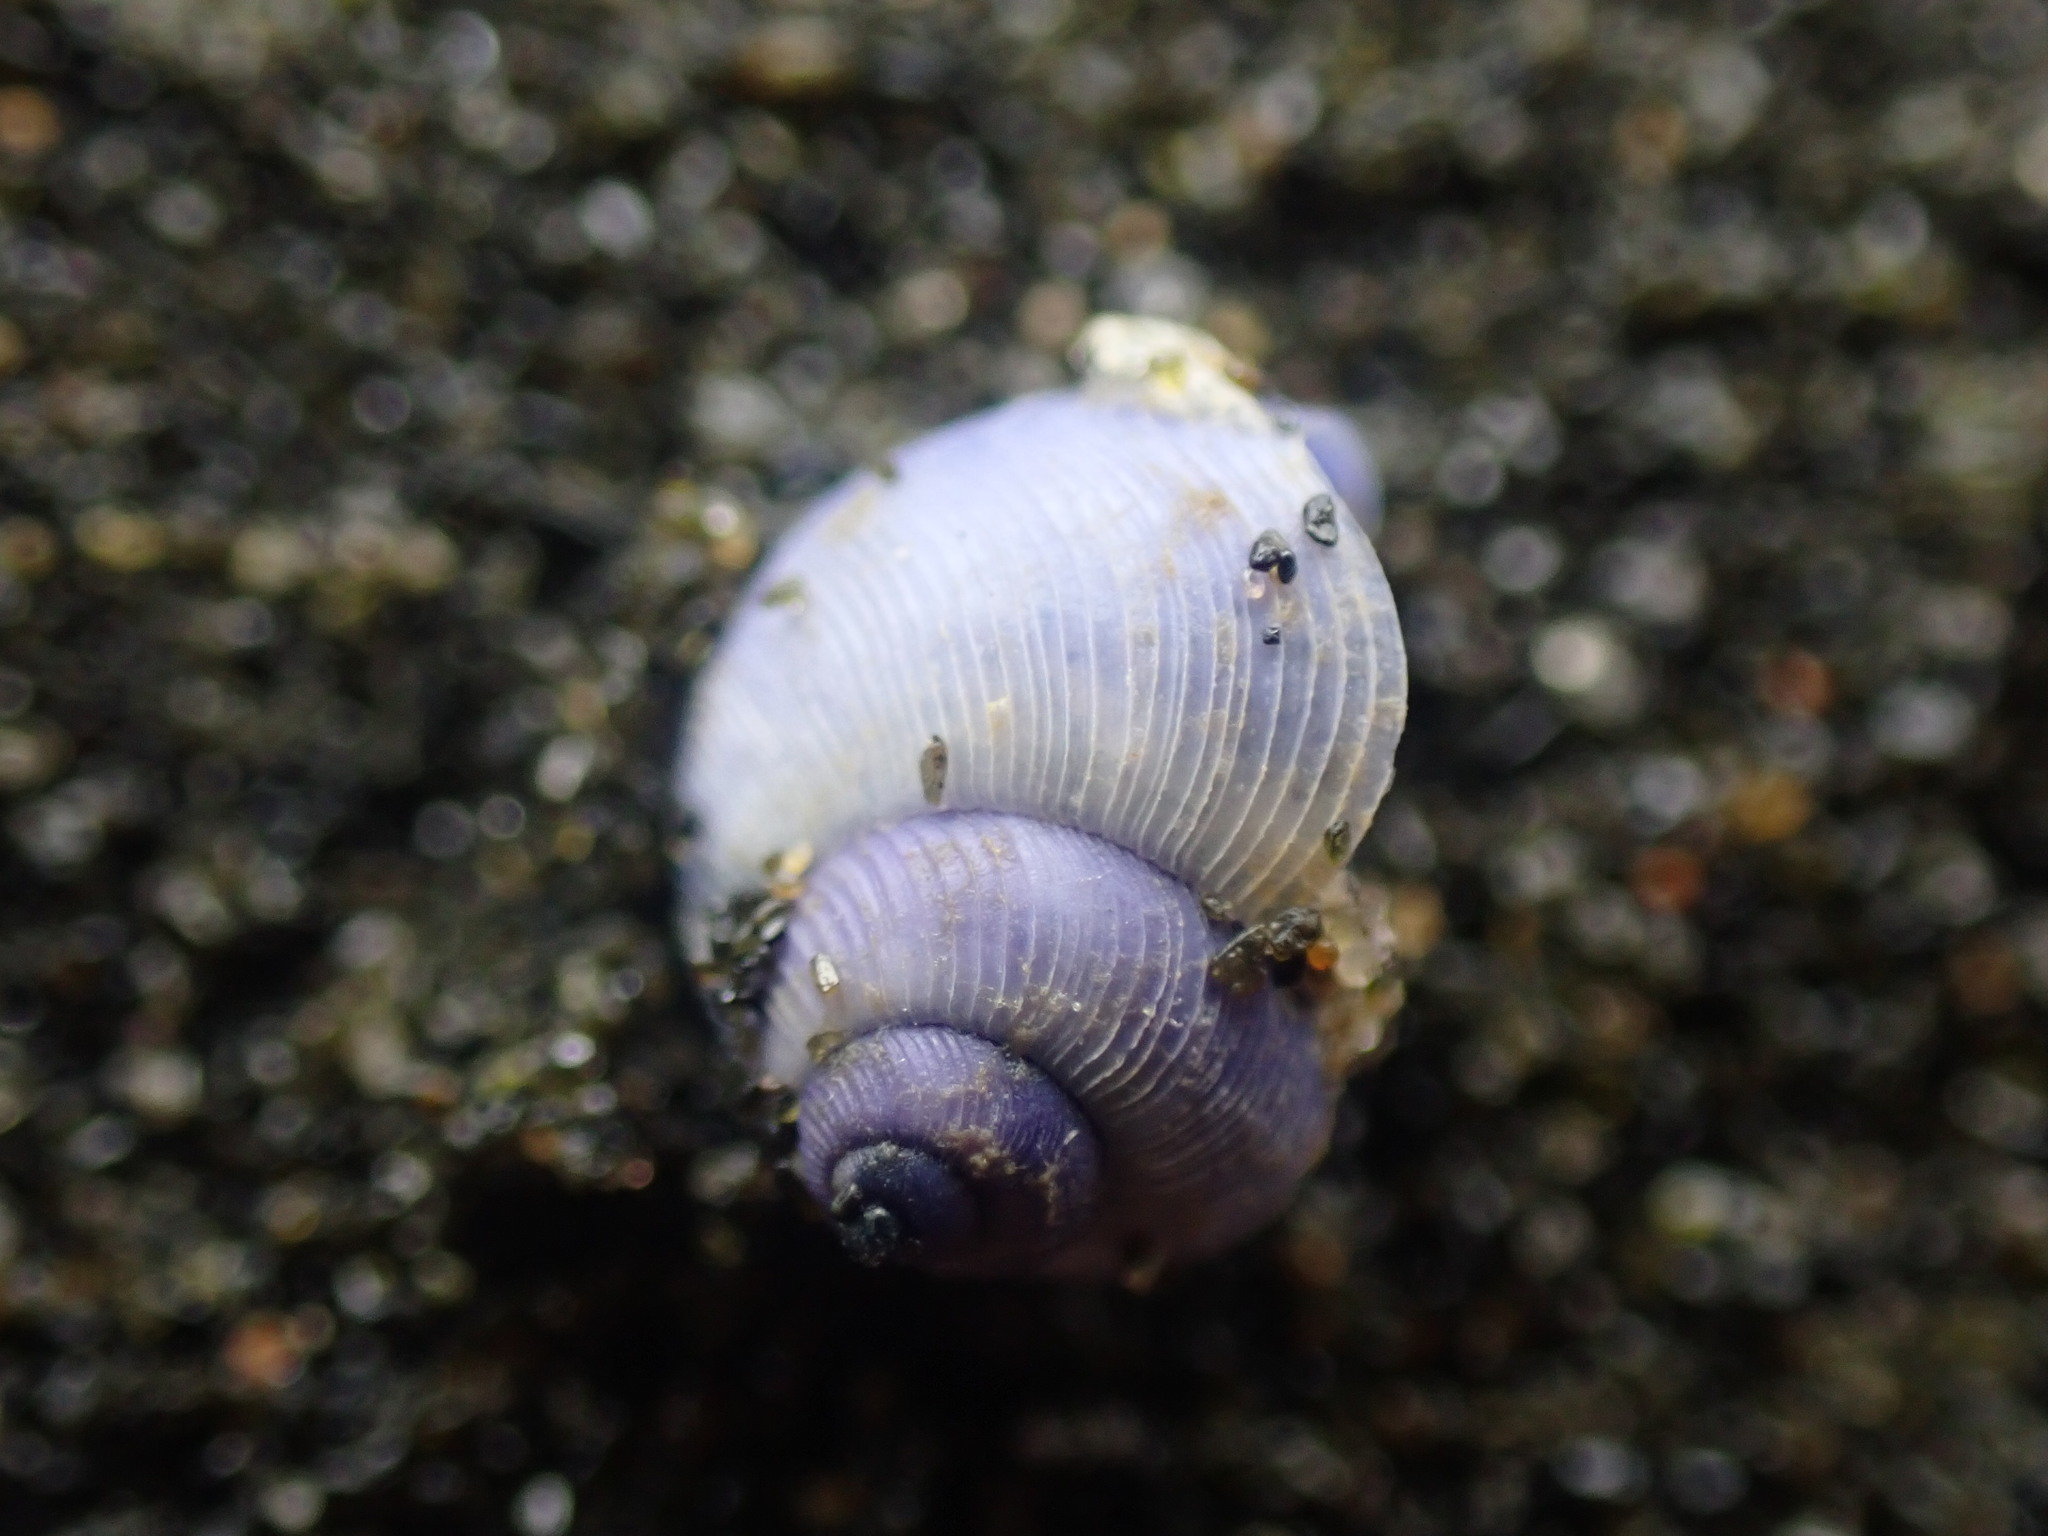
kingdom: Animalia
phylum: Mollusca
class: Gastropoda
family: Epitoniidae
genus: Janthina
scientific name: Janthina exigua
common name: Dwarf janthina
